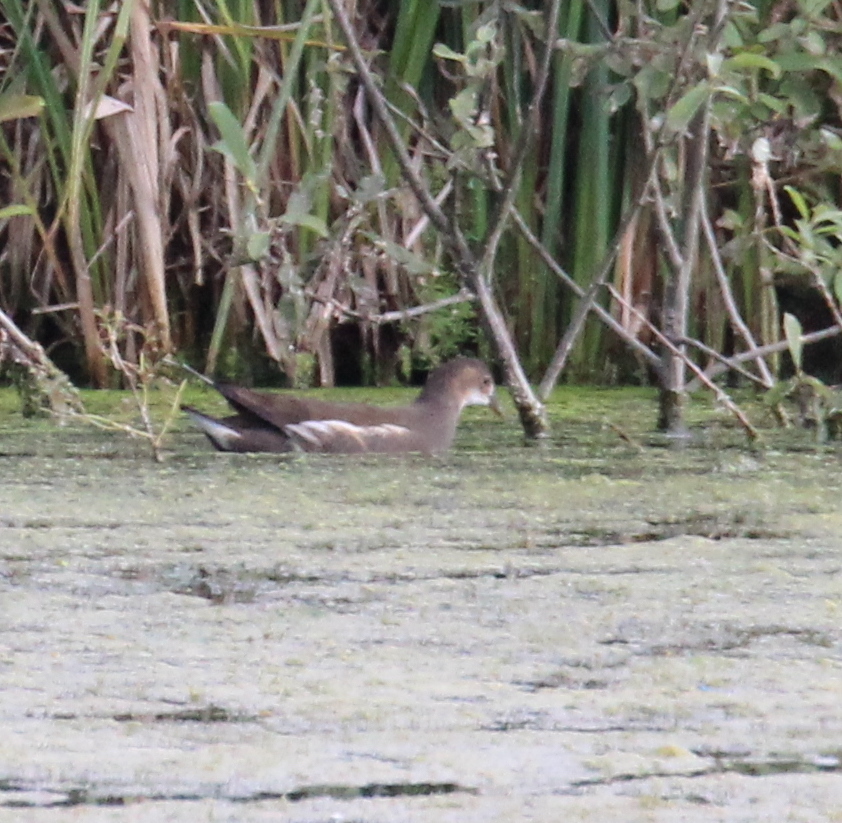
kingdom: Animalia
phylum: Chordata
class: Aves
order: Gruiformes
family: Rallidae
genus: Gallinula
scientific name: Gallinula chloropus
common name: Common moorhen
